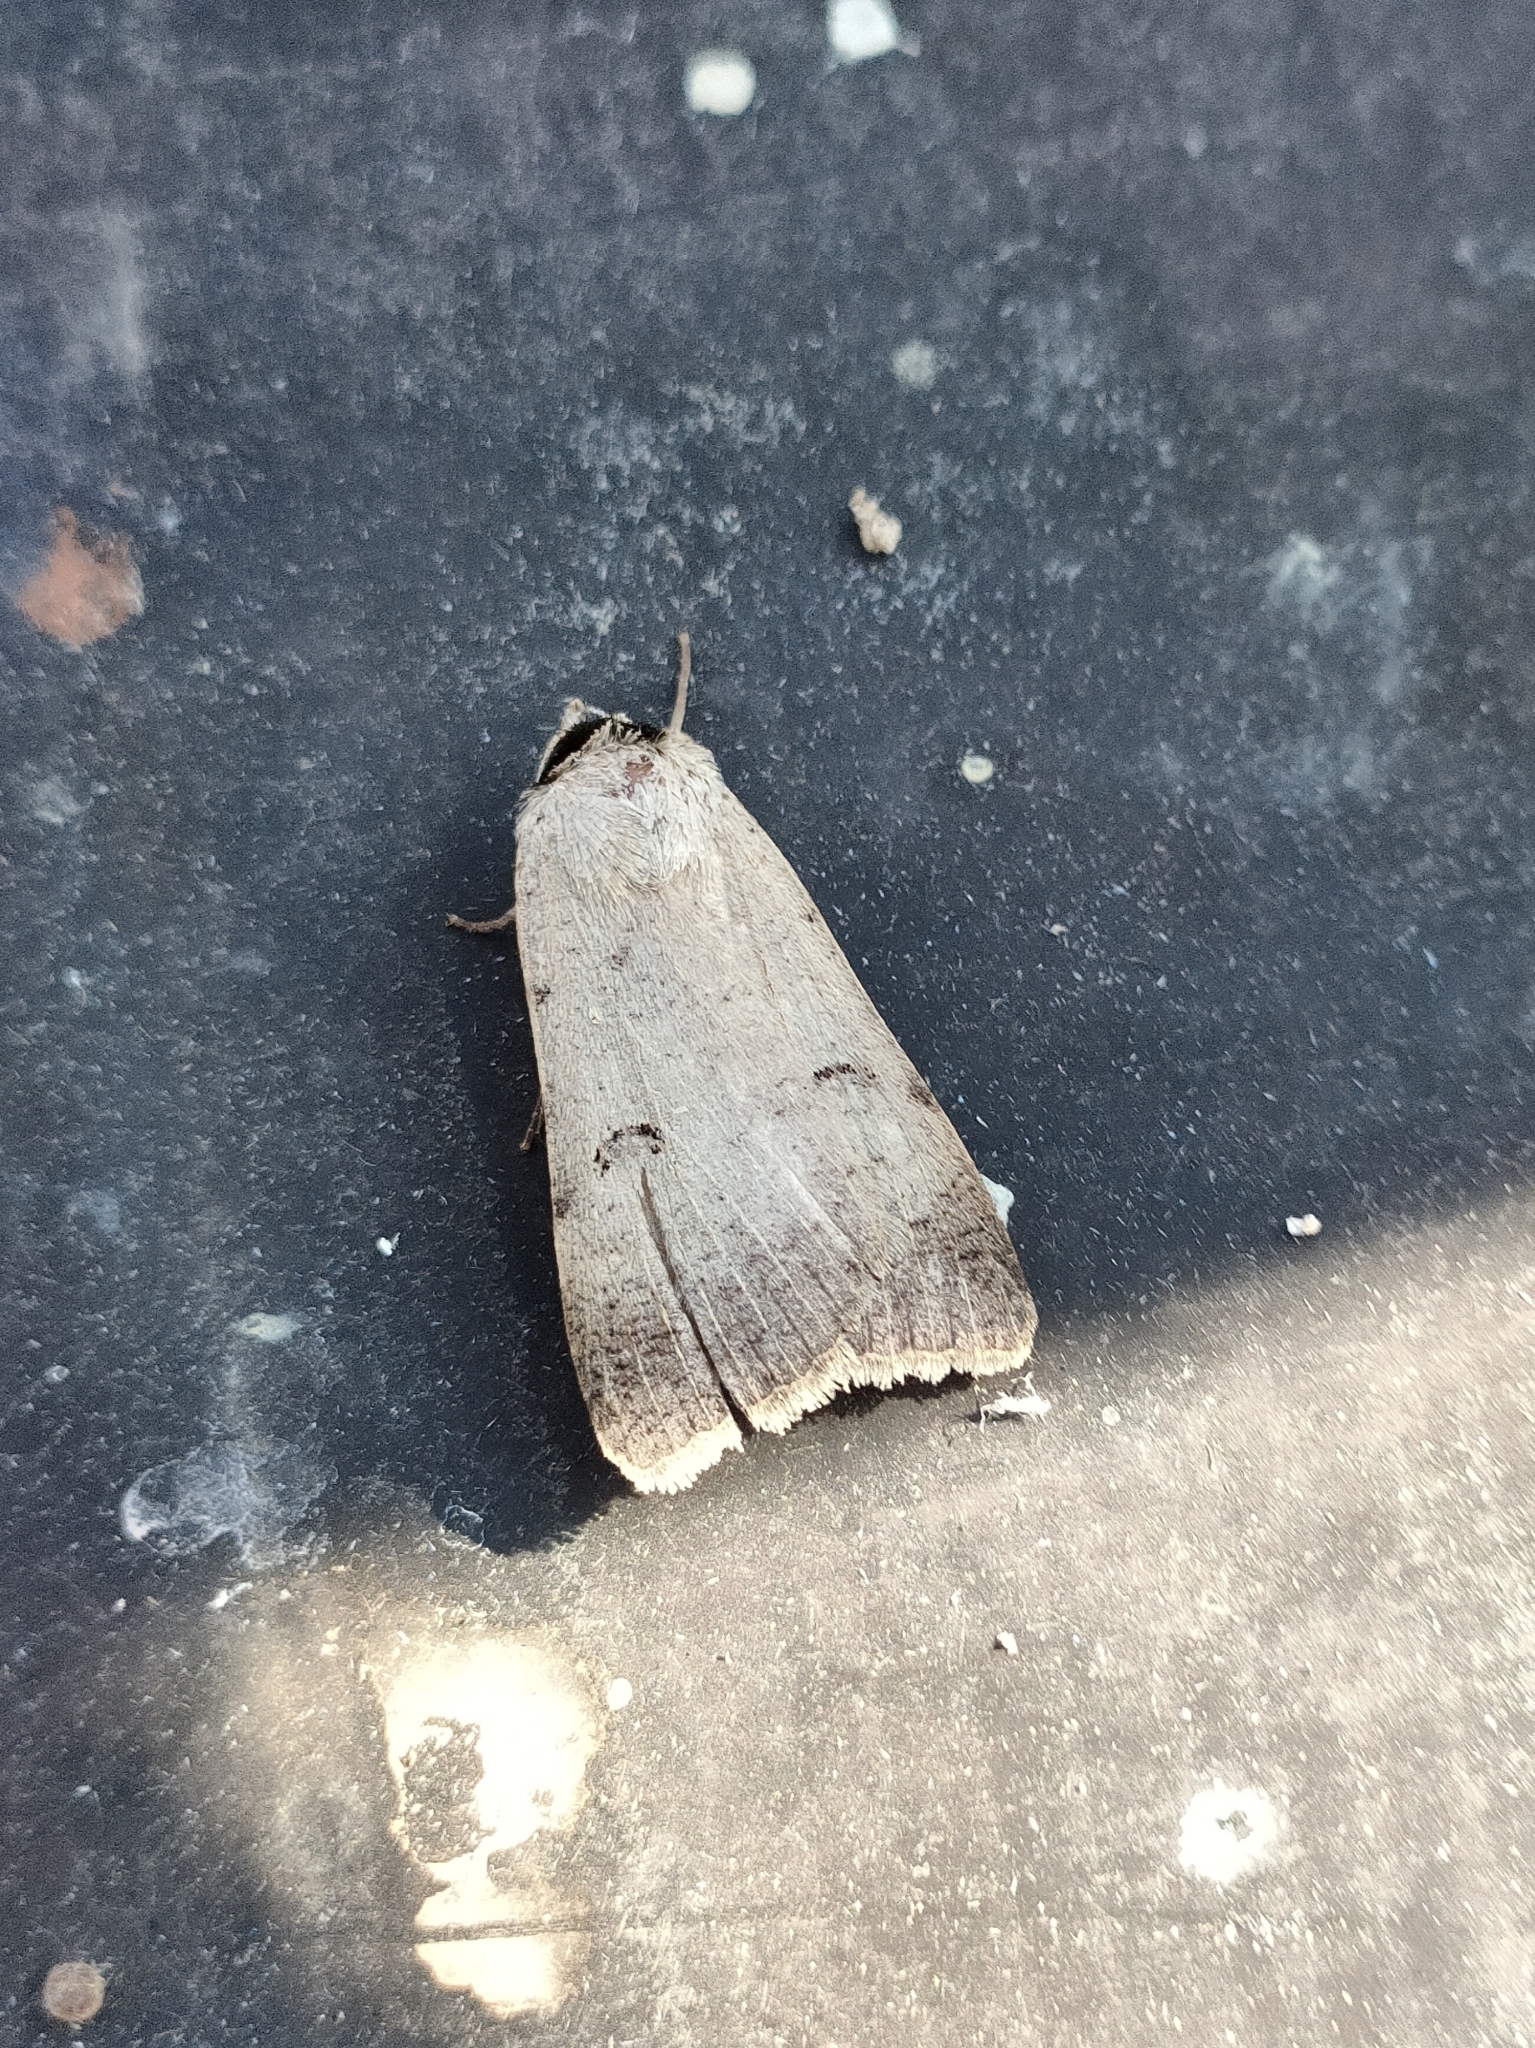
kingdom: Animalia
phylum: Arthropoda
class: Insecta
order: Lepidoptera
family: Erebidae
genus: Lygephila
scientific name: Lygephila craccae
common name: Scarce blackneck
